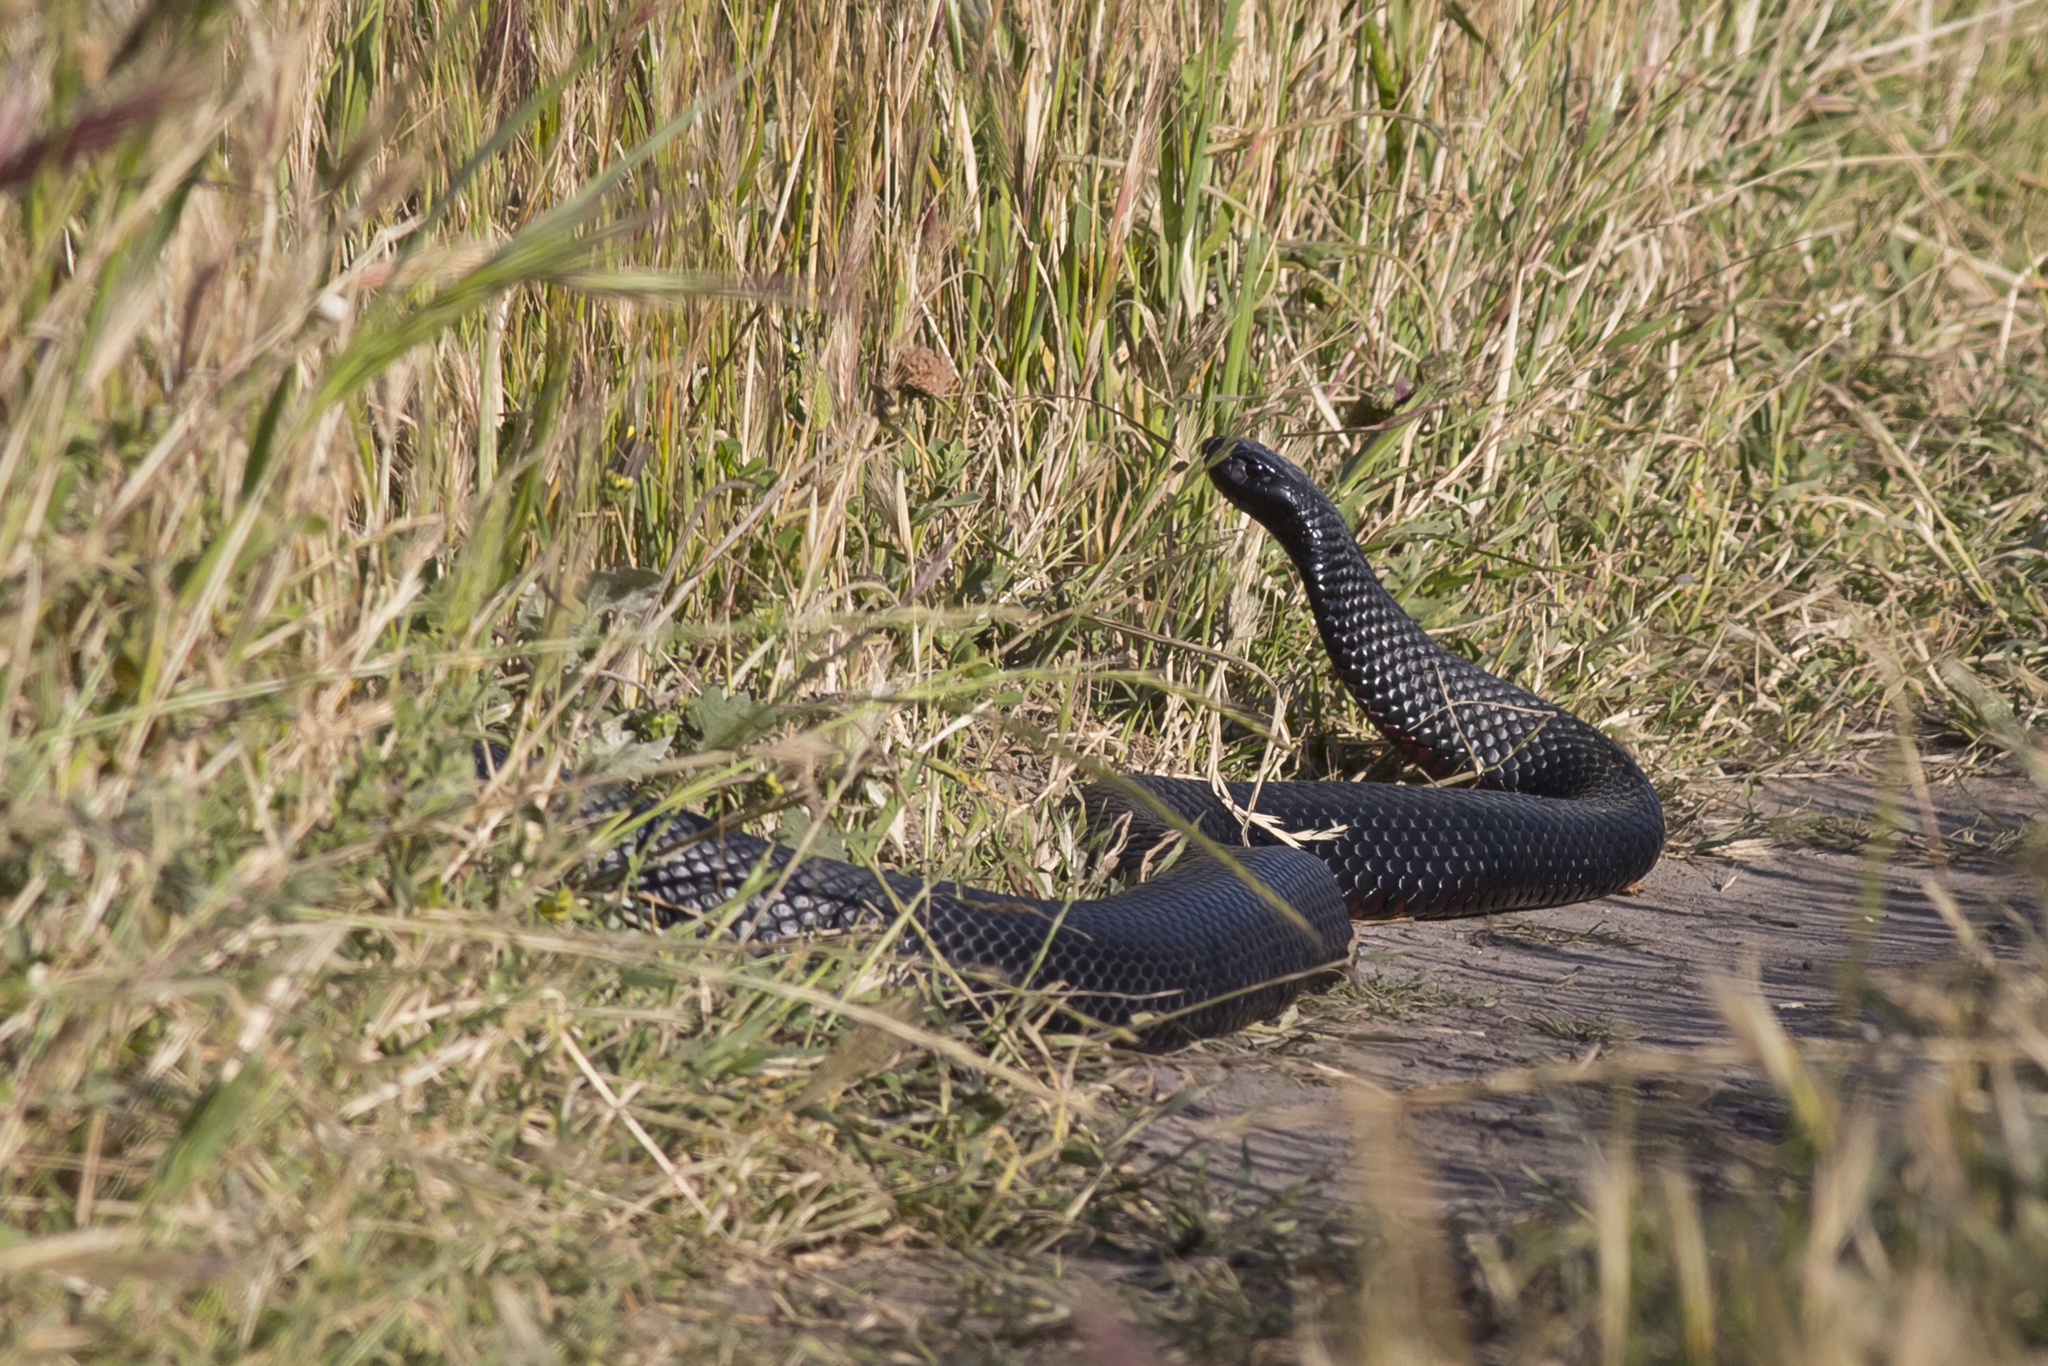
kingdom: Animalia
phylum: Chordata
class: Squamata
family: Elapidae
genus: Pseudechis
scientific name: Pseudechis porphyriacus
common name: Australian black snake
